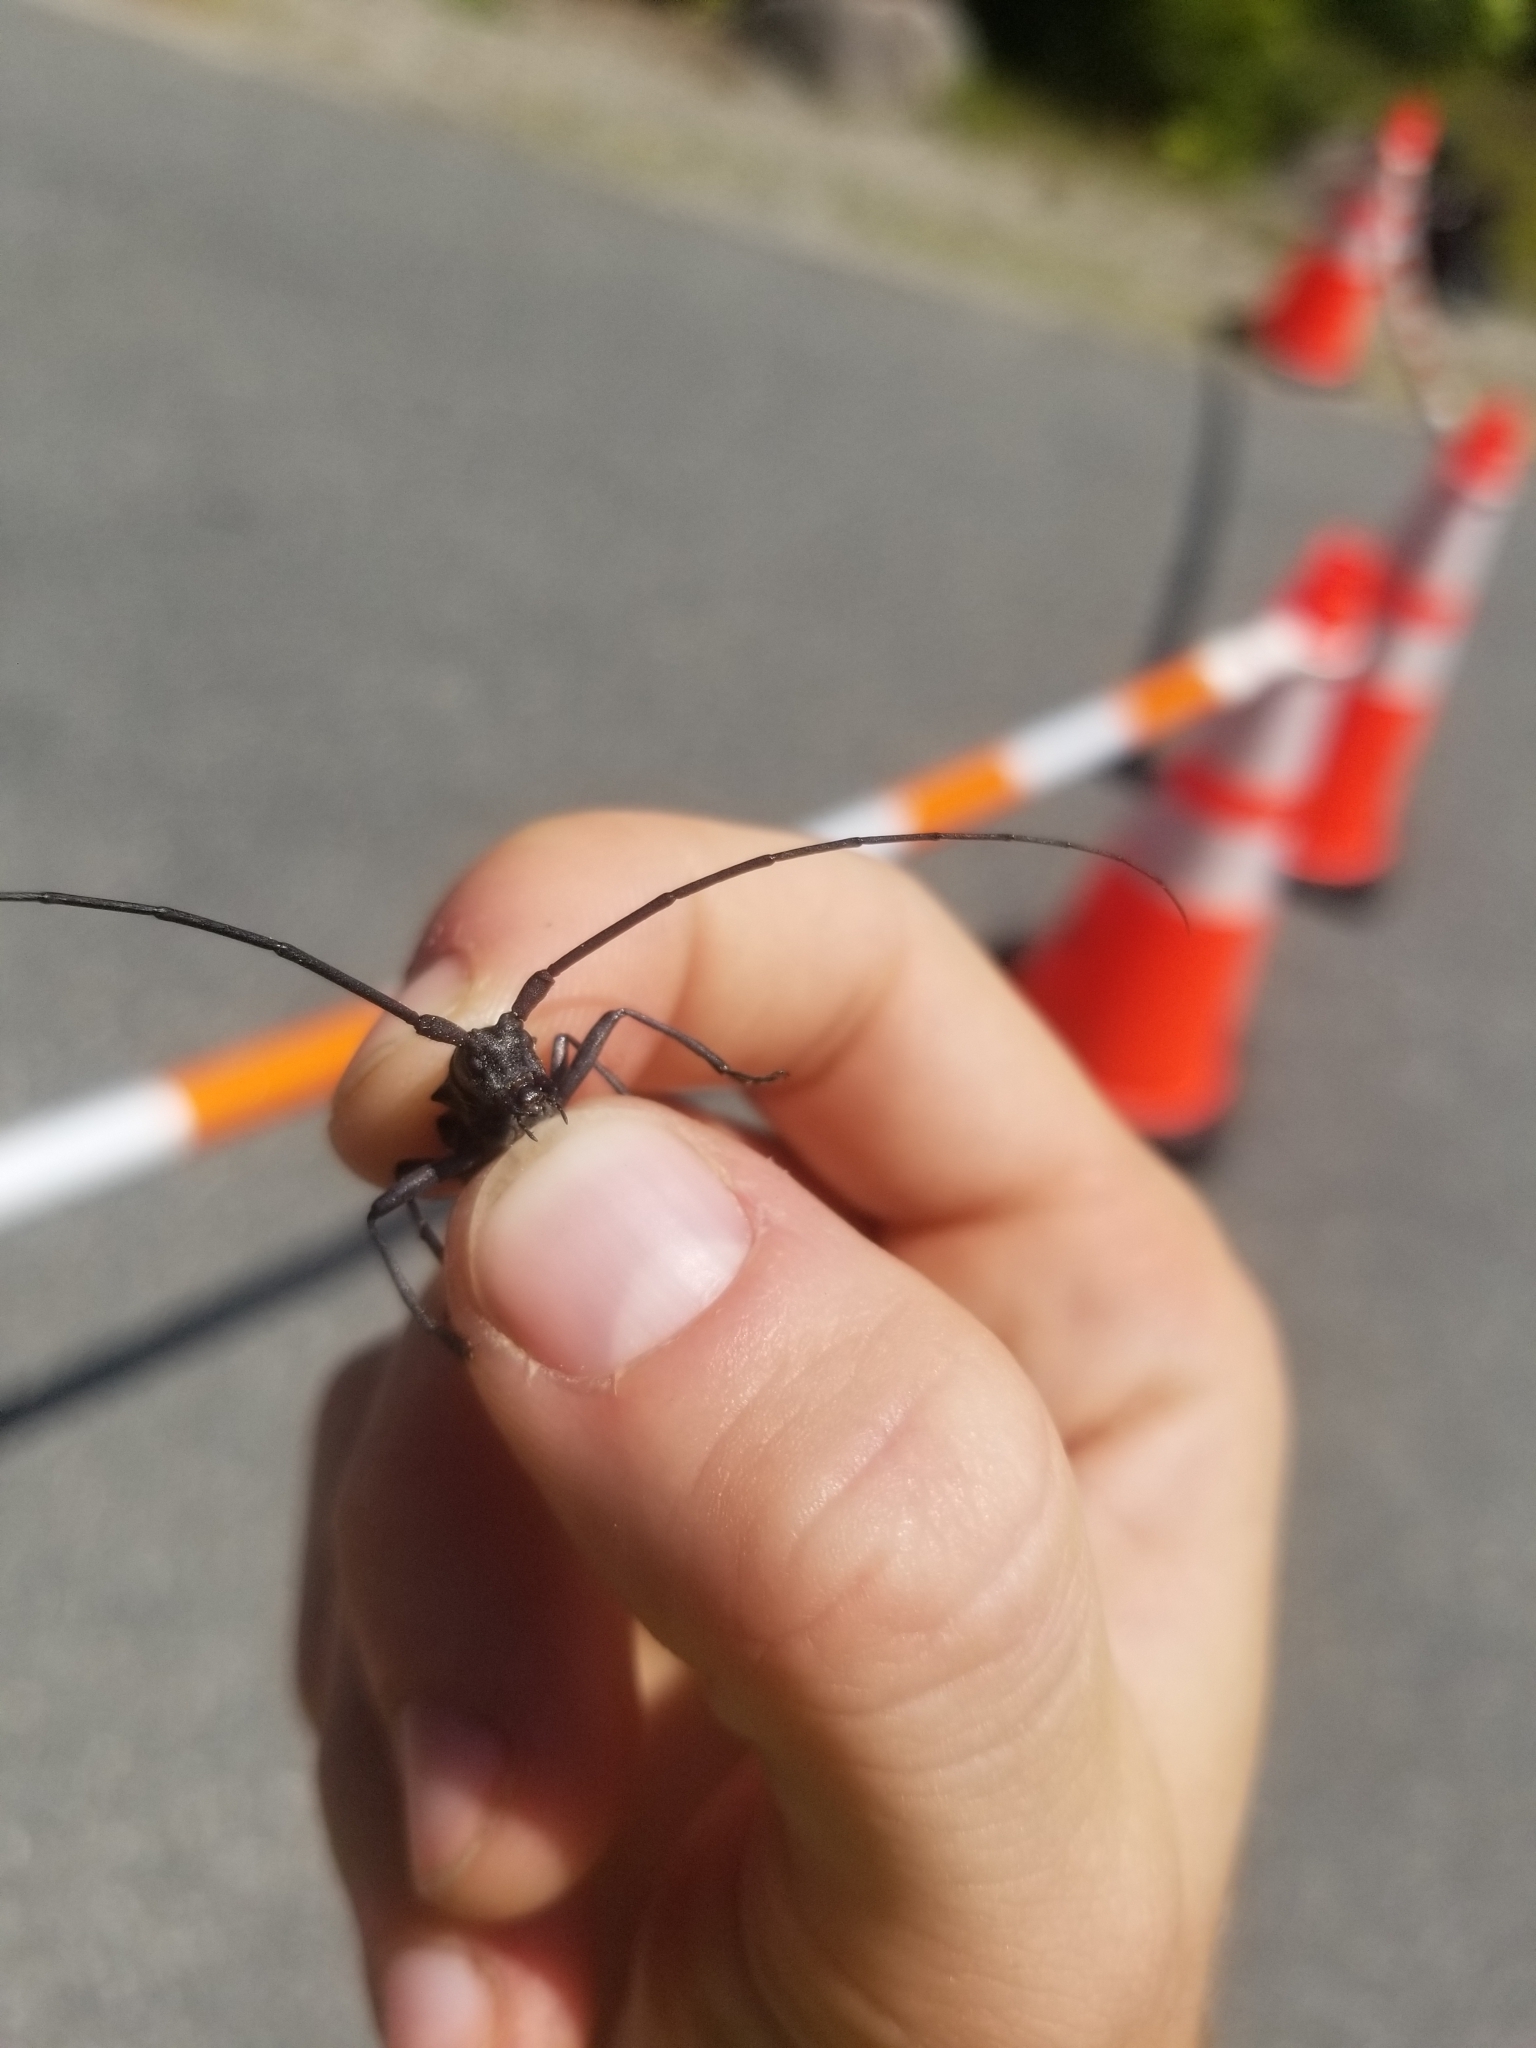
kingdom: Animalia
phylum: Arthropoda
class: Insecta
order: Coleoptera
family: Cerambycidae
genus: Monochamus
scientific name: Monochamus scutellatus
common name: White-spotted sawyer beetle
